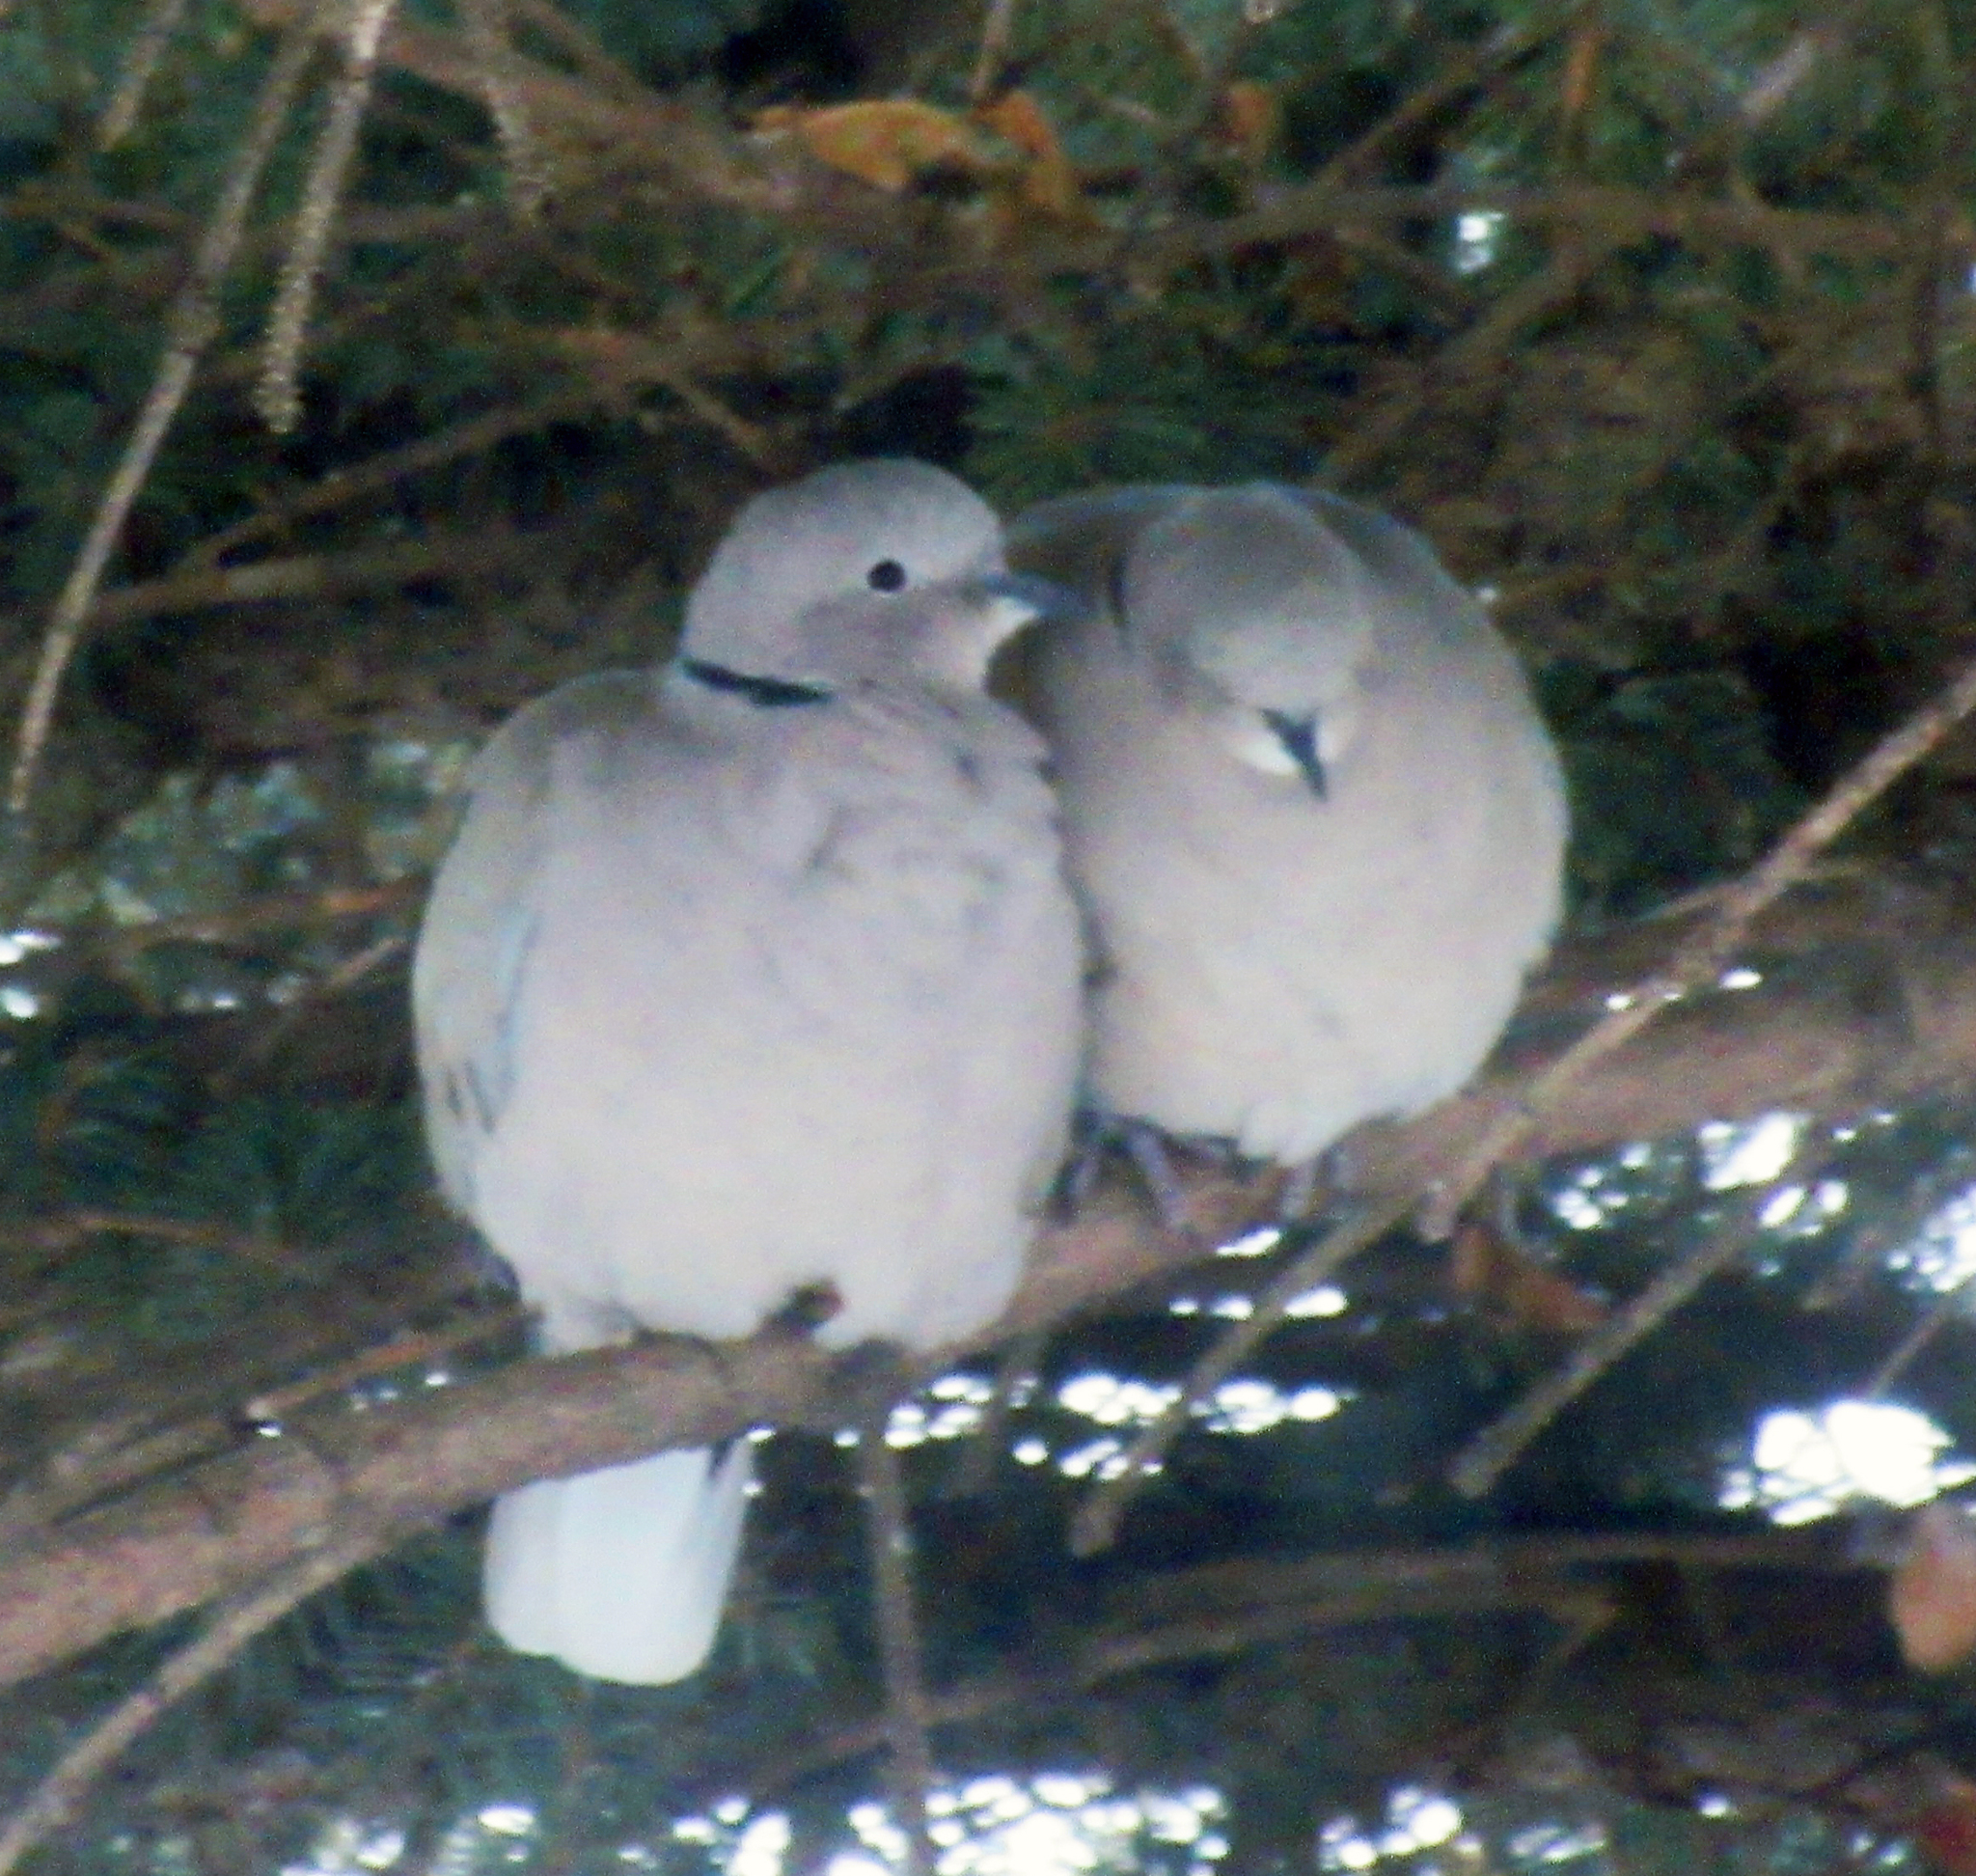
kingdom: Animalia
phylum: Chordata
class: Aves
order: Columbiformes
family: Columbidae
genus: Streptopelia
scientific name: Streptopelia decaocto
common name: Eurasian collared dove
